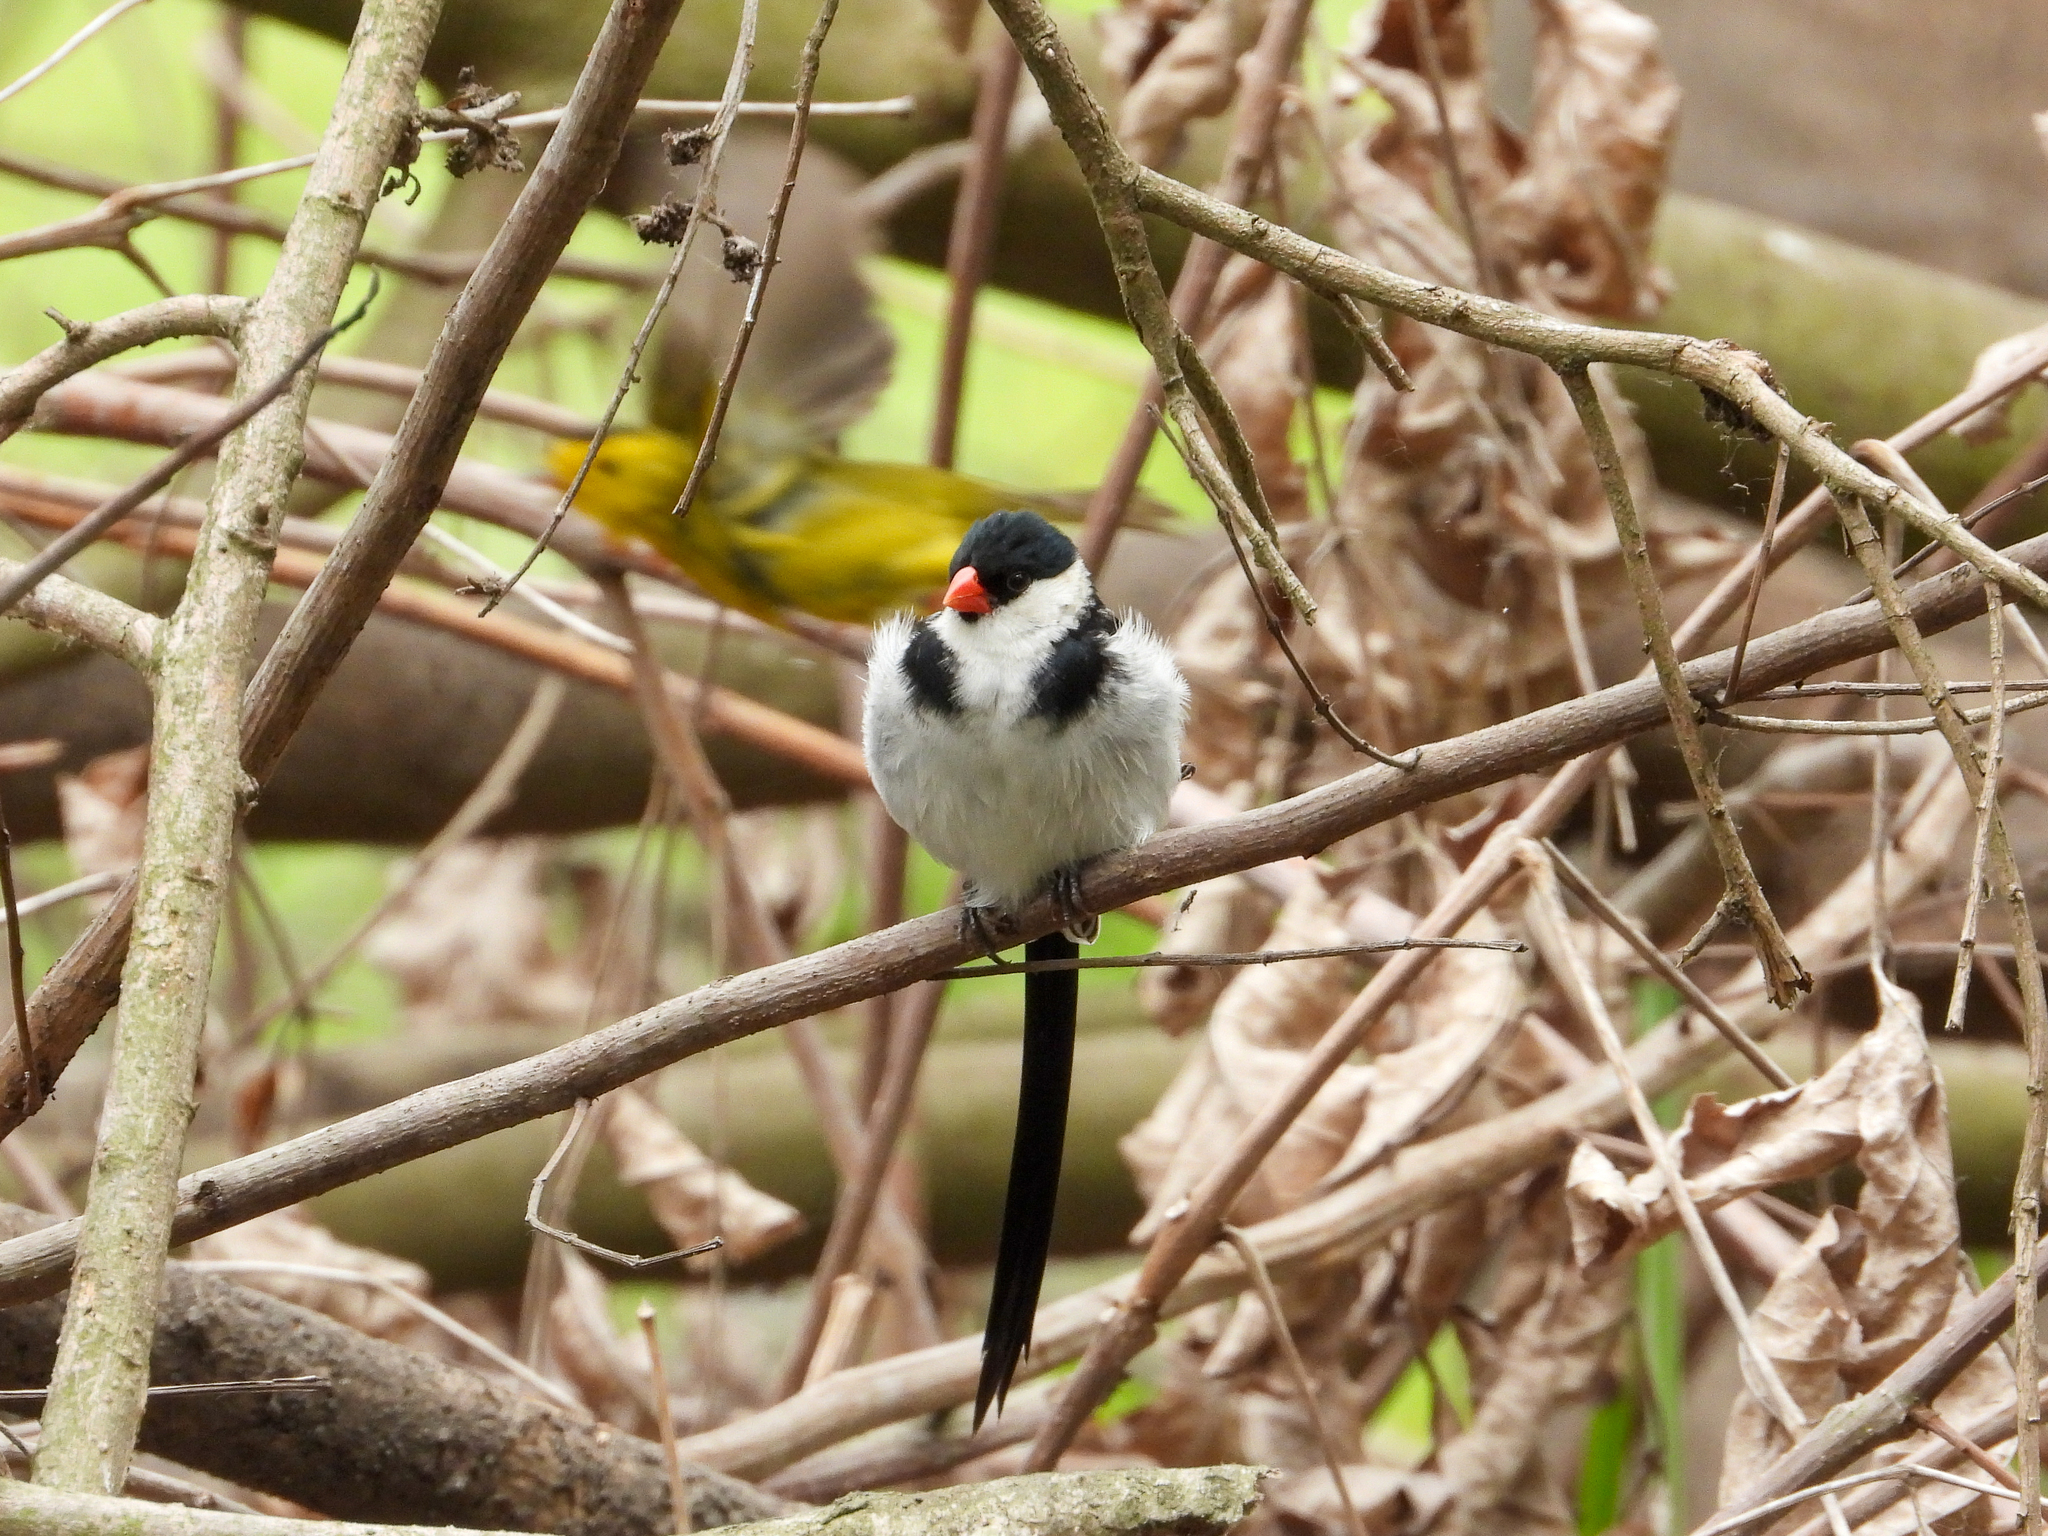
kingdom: Animalia
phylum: Chordata
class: Aves
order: Passeriformes
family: Viduidae
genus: Vidua
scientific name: Vidua macroura
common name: Pin-tailed whydah
